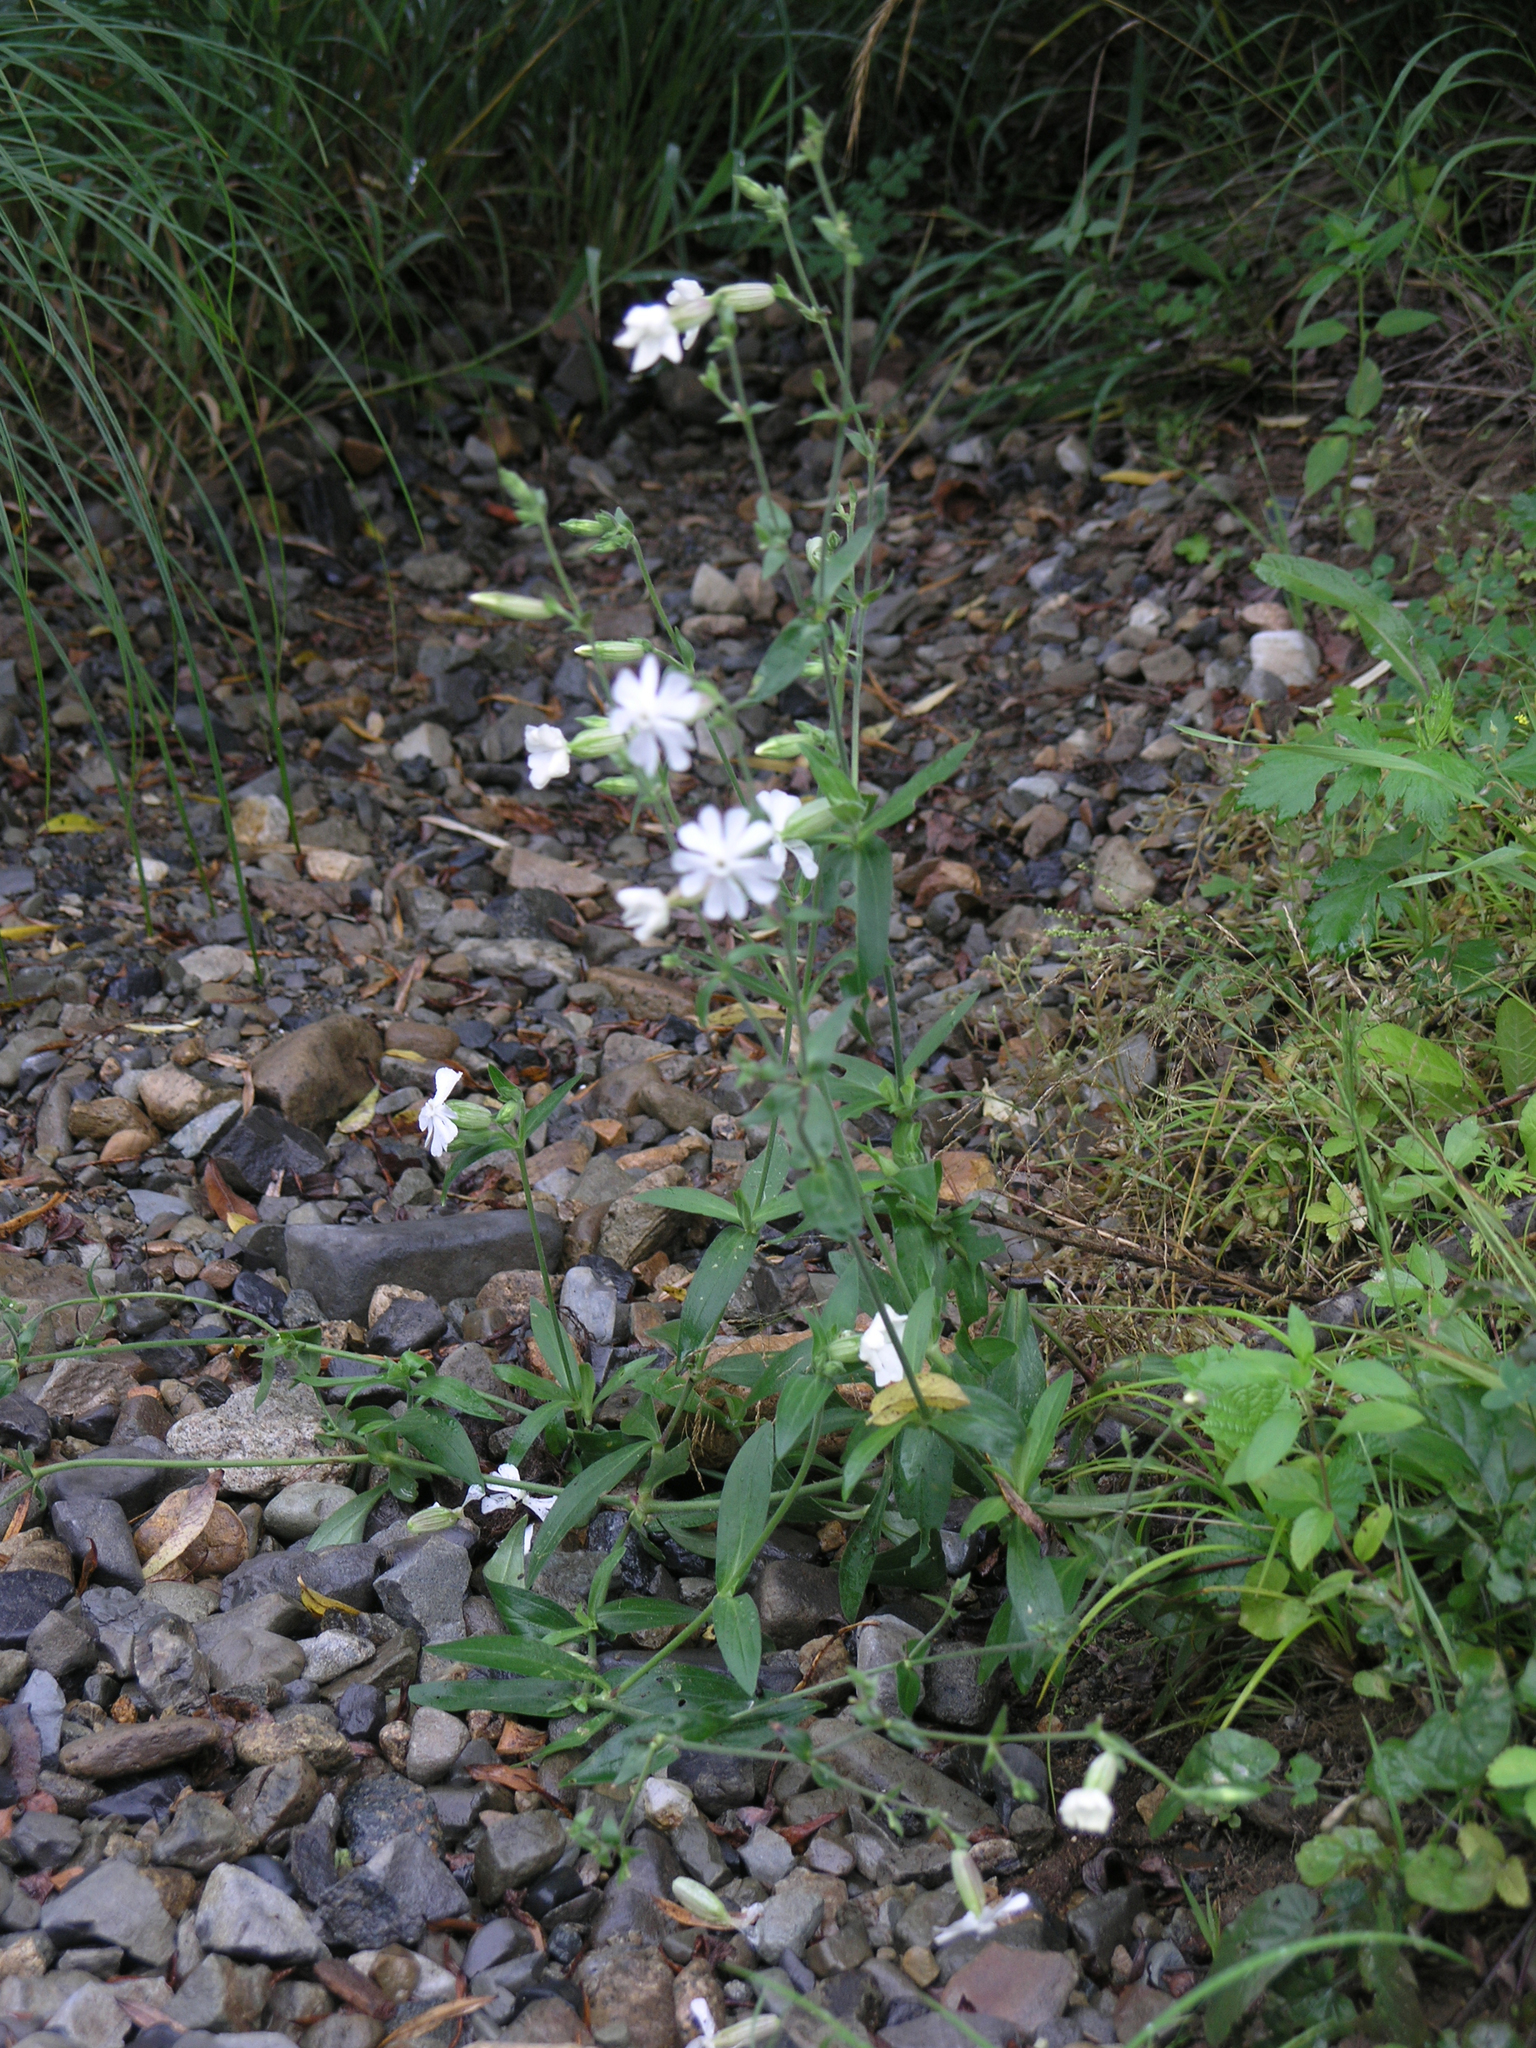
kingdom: Plantae
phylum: Tracheophyta
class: Magnoliopsida
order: Caryophyllales
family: Caryophyllaceae
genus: Silene
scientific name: Silene latifolia
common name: White campion
